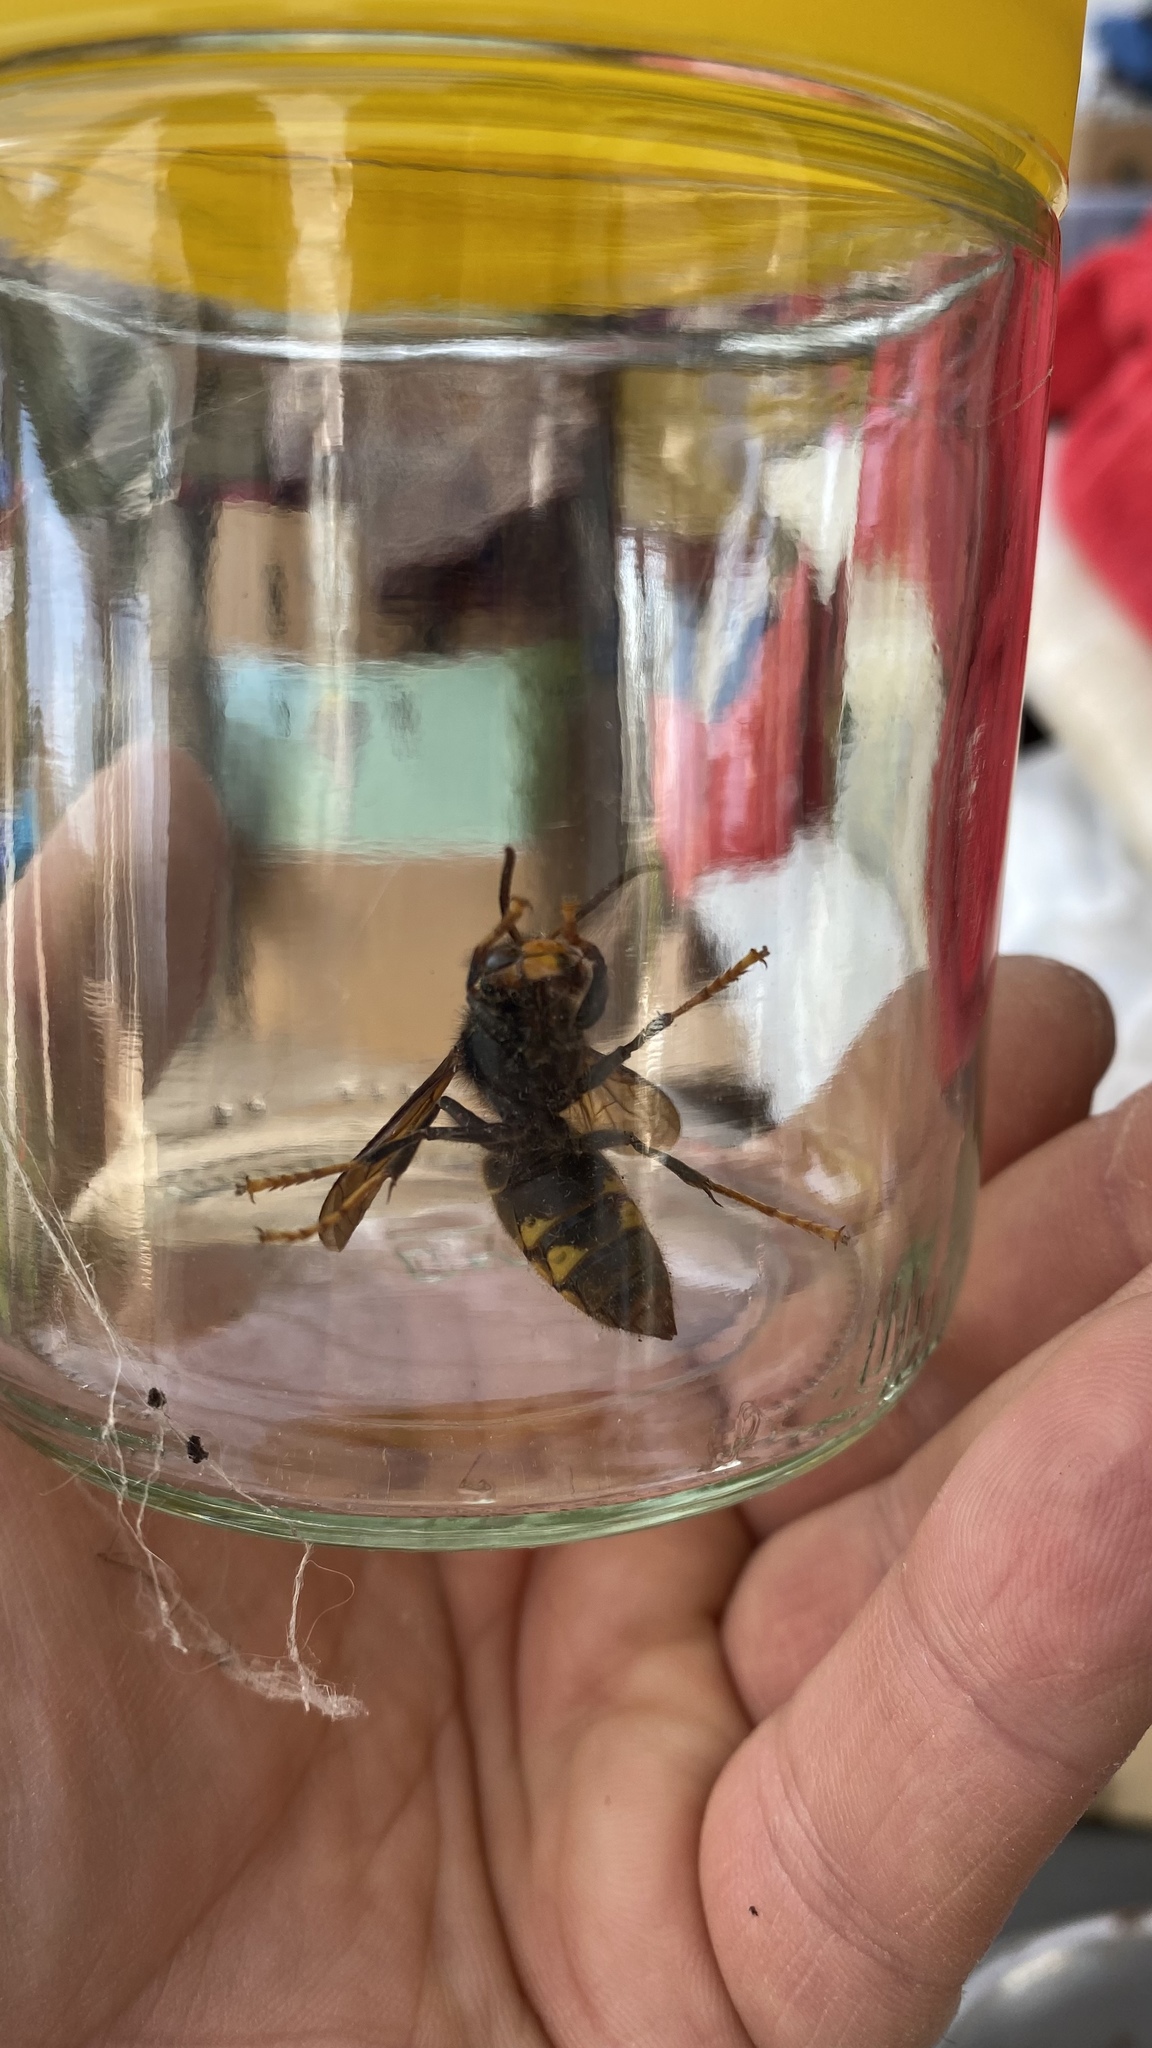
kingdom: Animalia
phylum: Arthropoda
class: Insecta
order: Hymenoptera
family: Vespidae
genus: Vespa
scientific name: Vespa velutina
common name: Asian hornet
